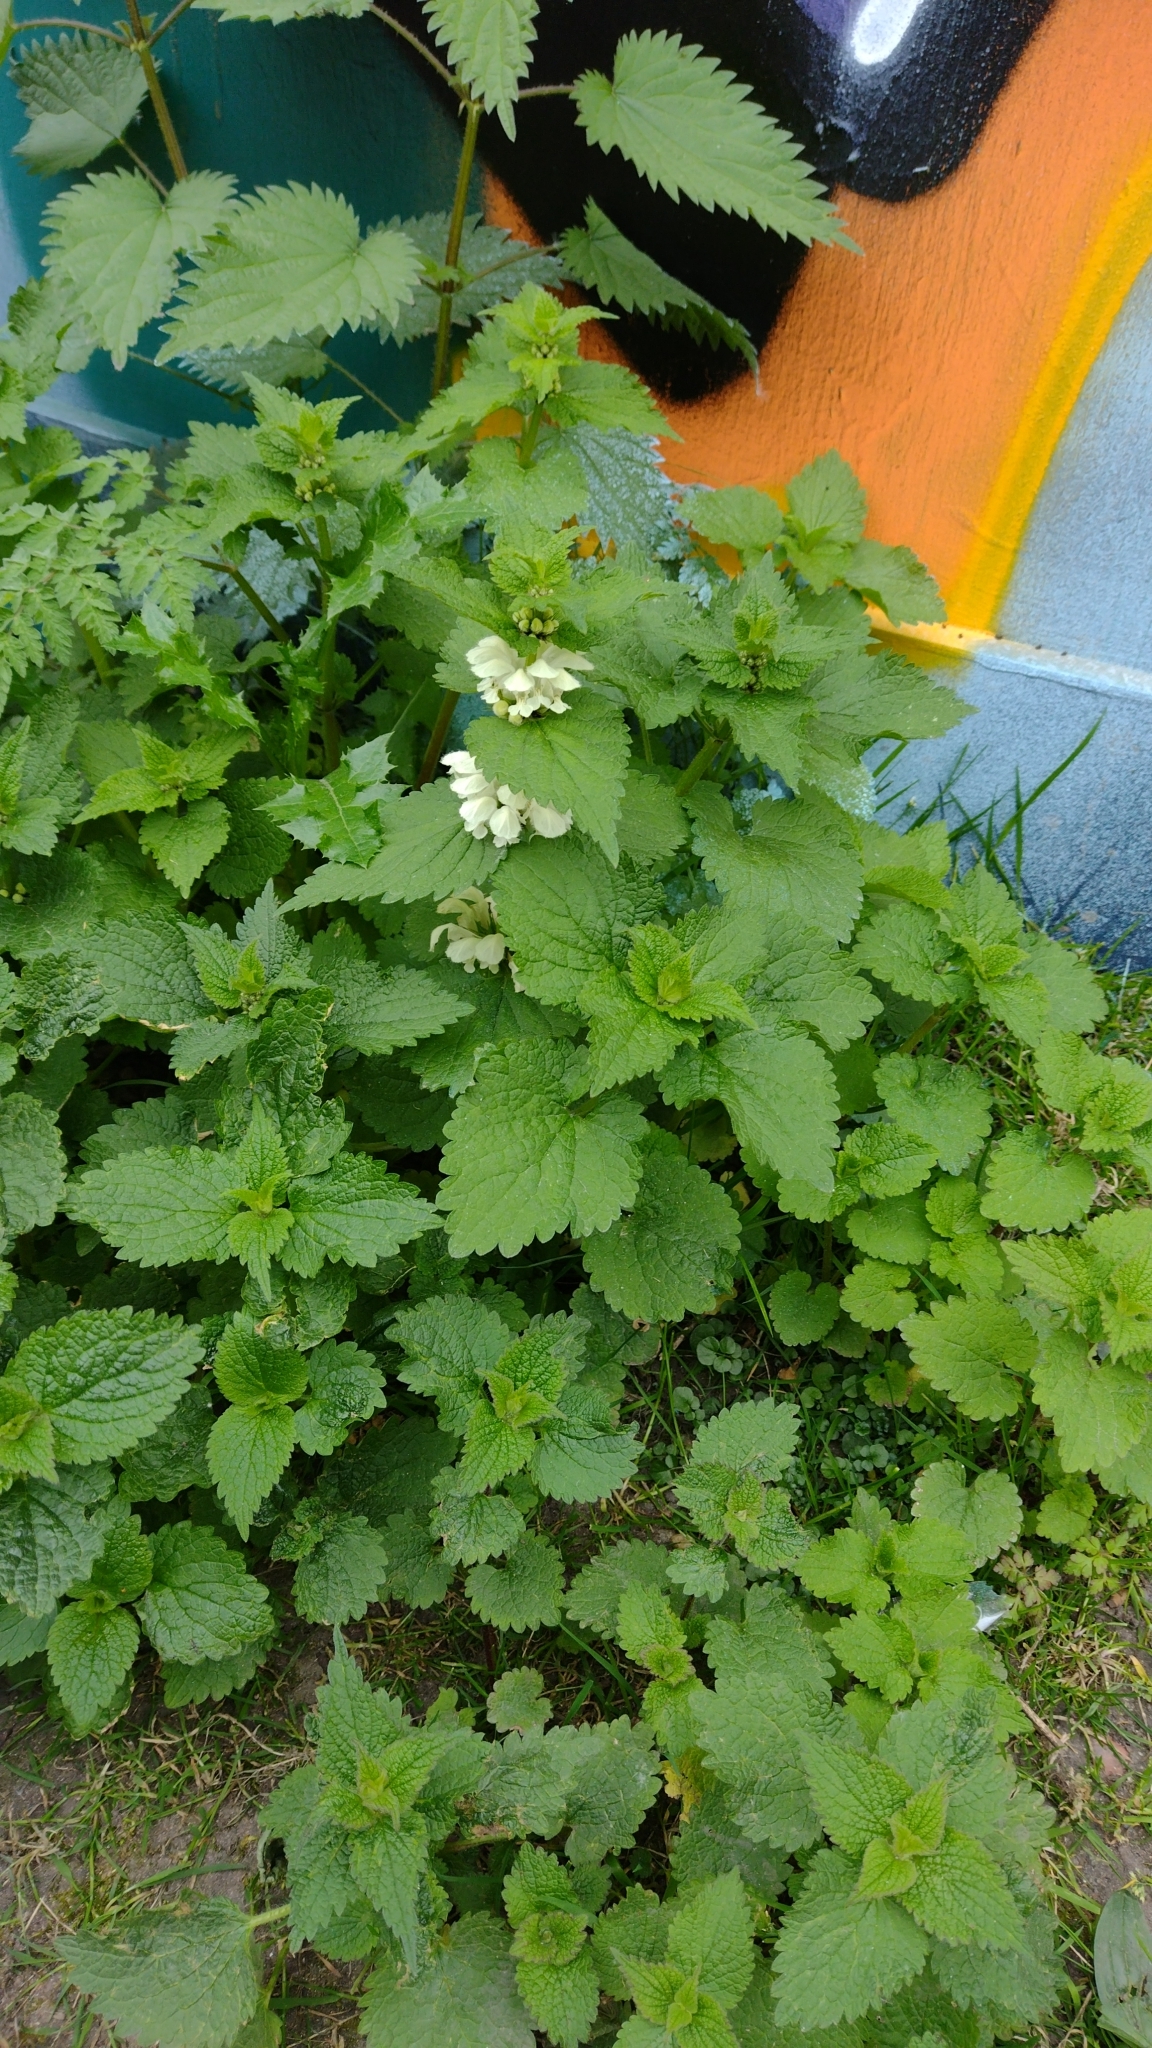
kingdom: Plantae
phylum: Tracheophyta
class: Magnoliopsida
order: Lamiales
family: Lamiaceae
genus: Lamium
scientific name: Lamium album
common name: White dead-nettle
